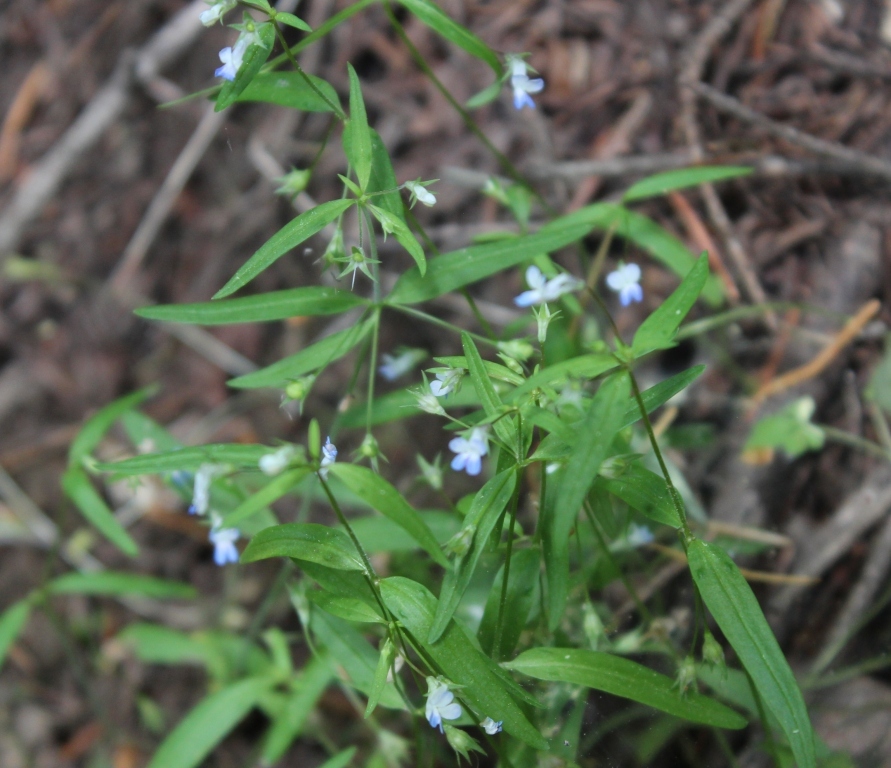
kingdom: Plantae
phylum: Tracheophyta
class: Magnoliopsida
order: Lamiales
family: Plantaginaceae
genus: Collinsia
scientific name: Collinsia parviflora
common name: Blue-lips
